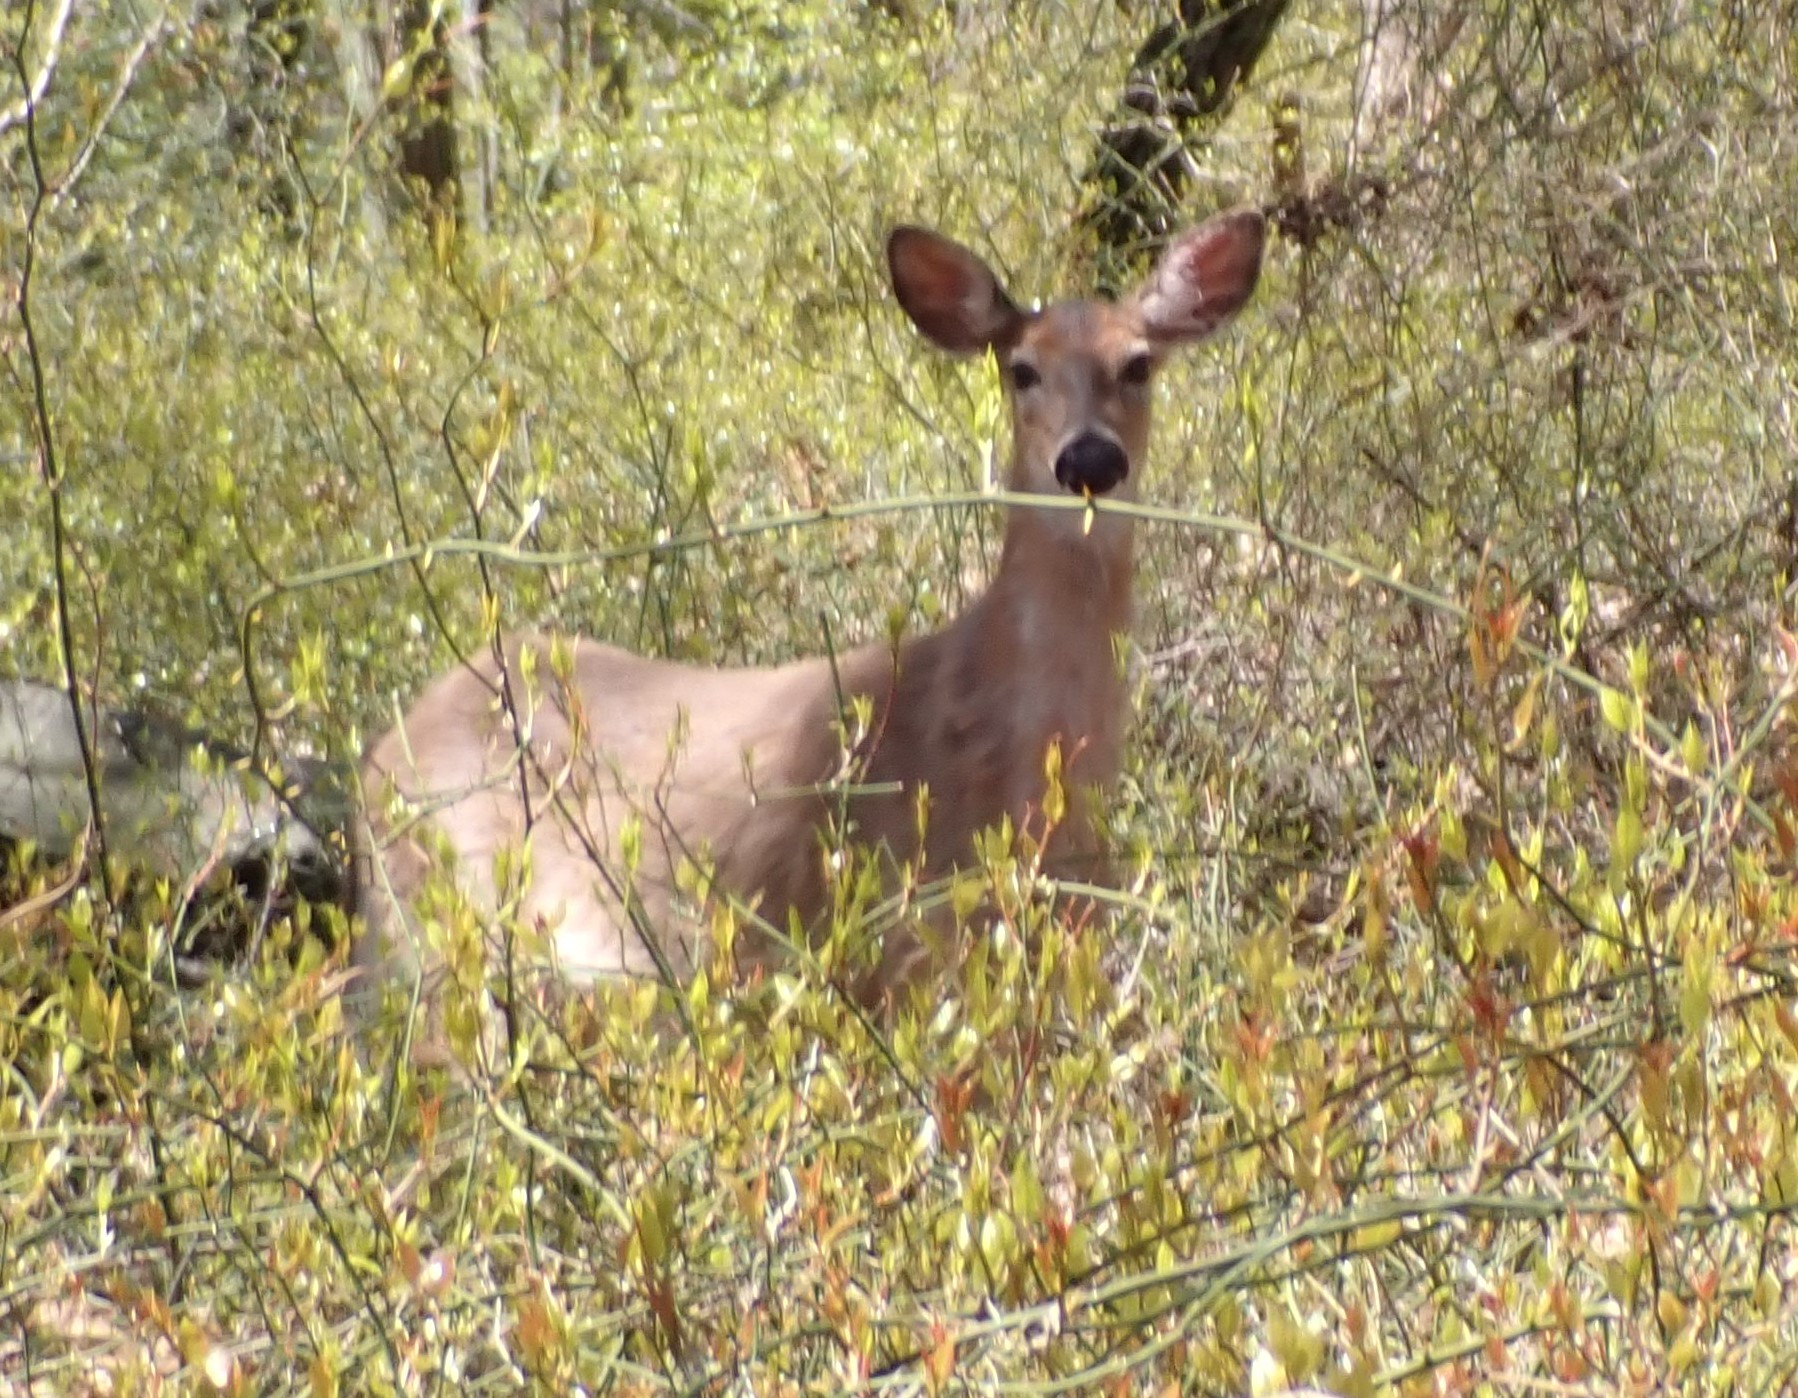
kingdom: Animalia
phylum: Chordata
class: Mammalia
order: Artiodactyla
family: Cervidae
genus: Odocoileus
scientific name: Odocoileus virginianus
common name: White-tailed deer
